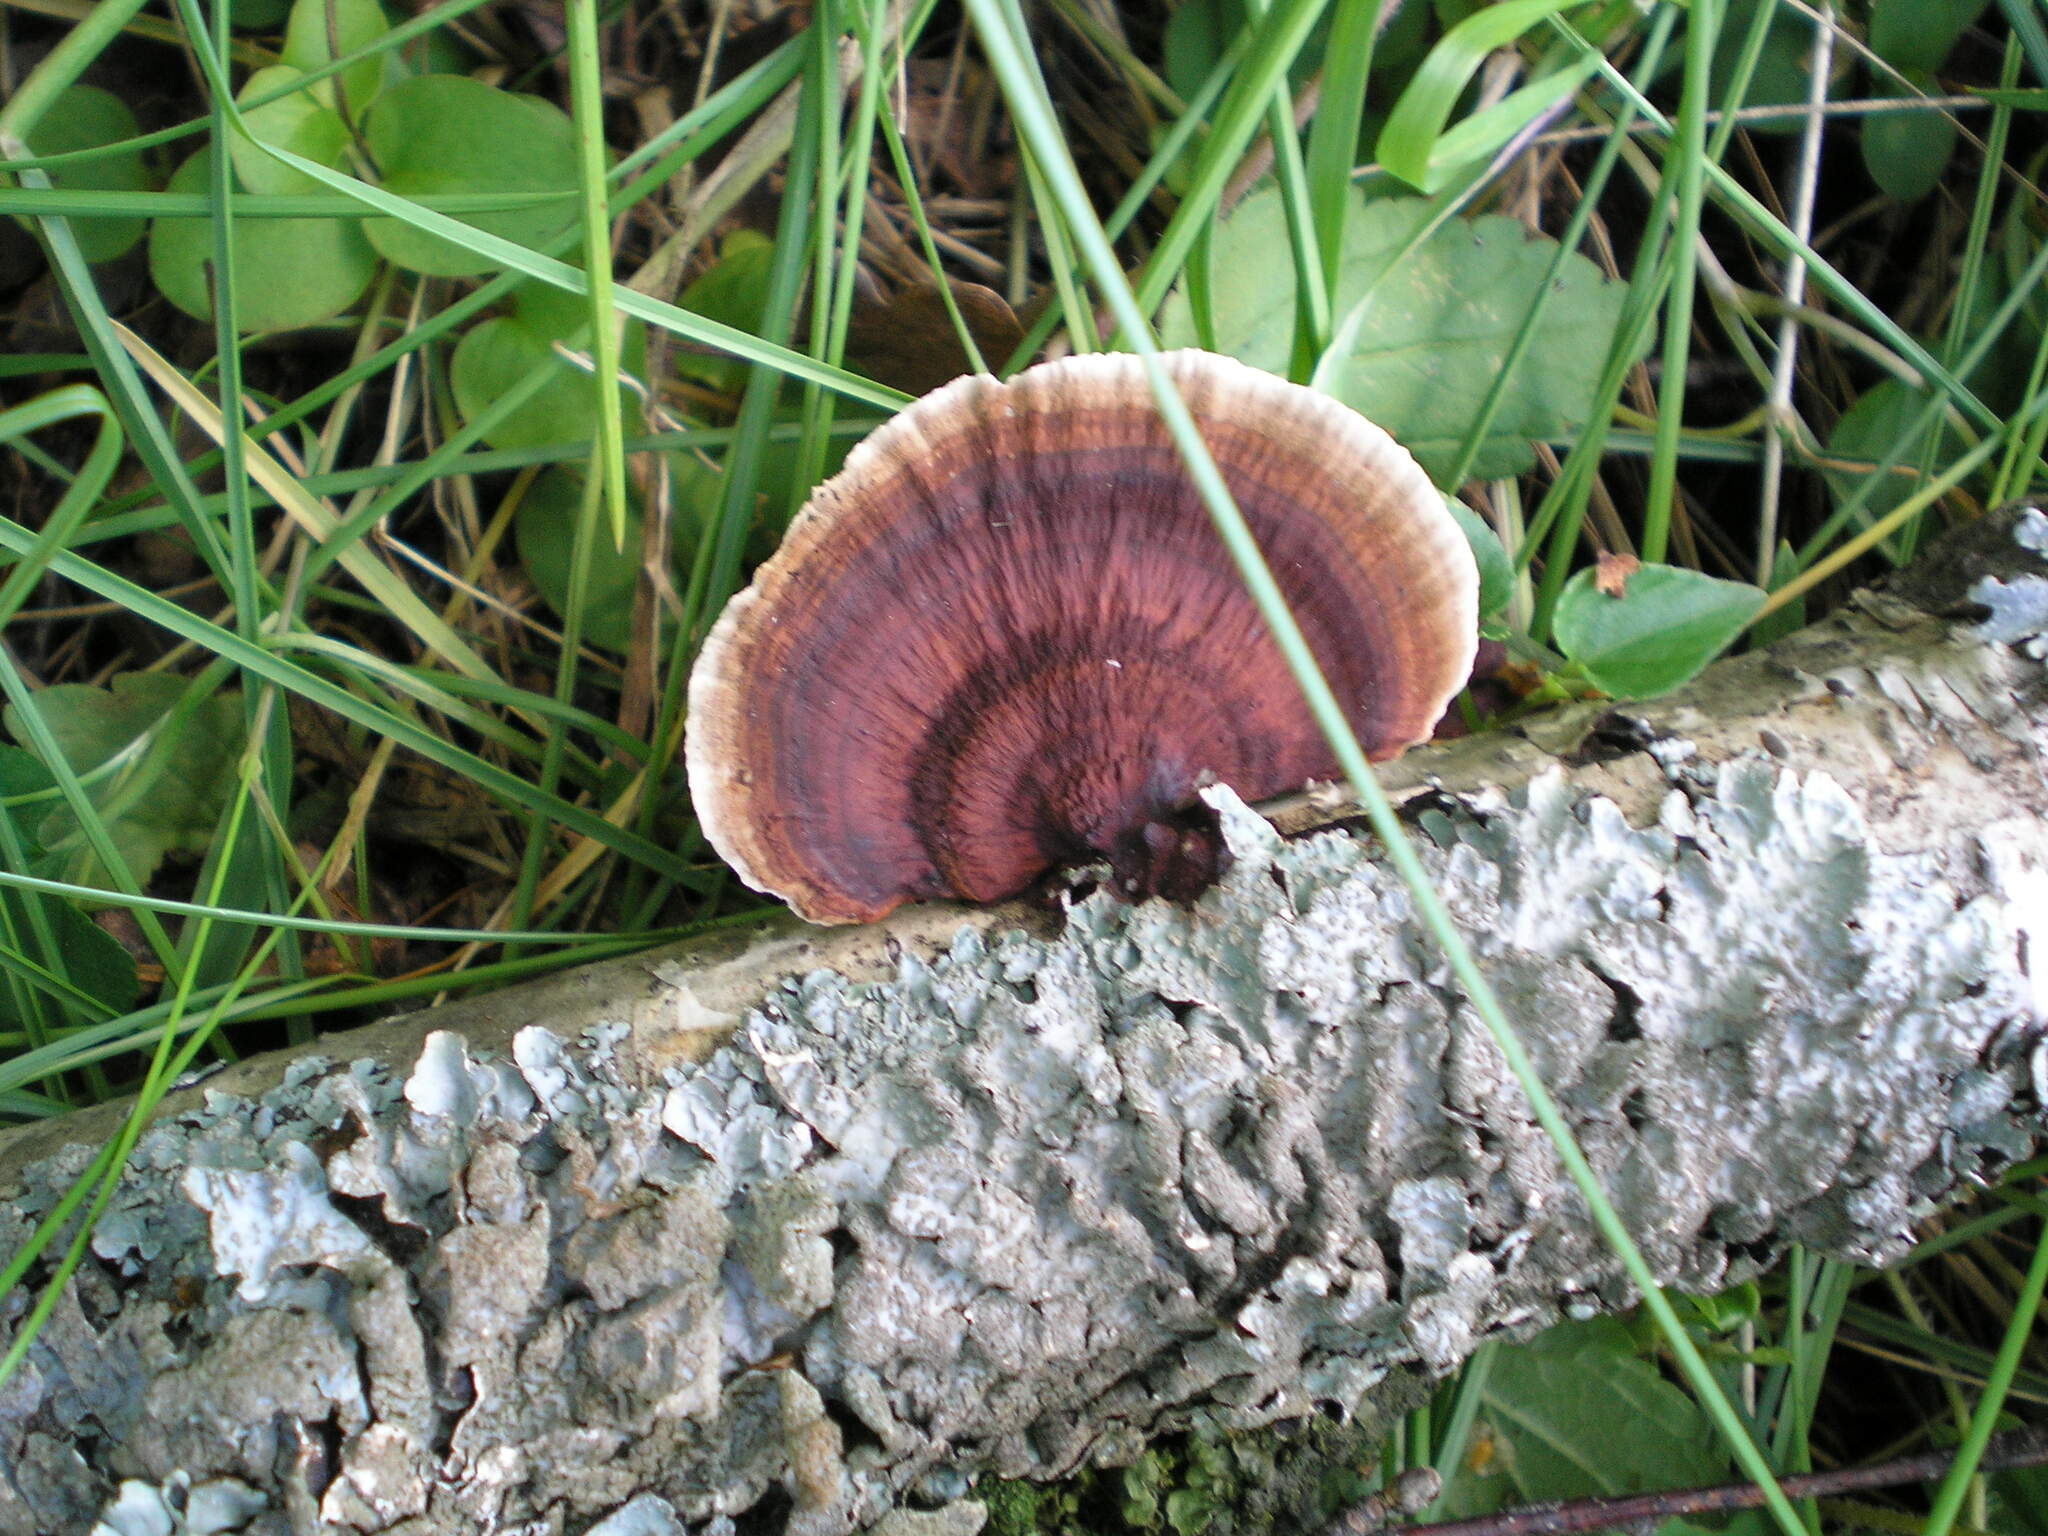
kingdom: Fungi
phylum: Basidiomycota
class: Agaricomycetes
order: Polyporales
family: Polyporaceae
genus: Daedaleopsis
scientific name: Daedaleopsis tricolor
